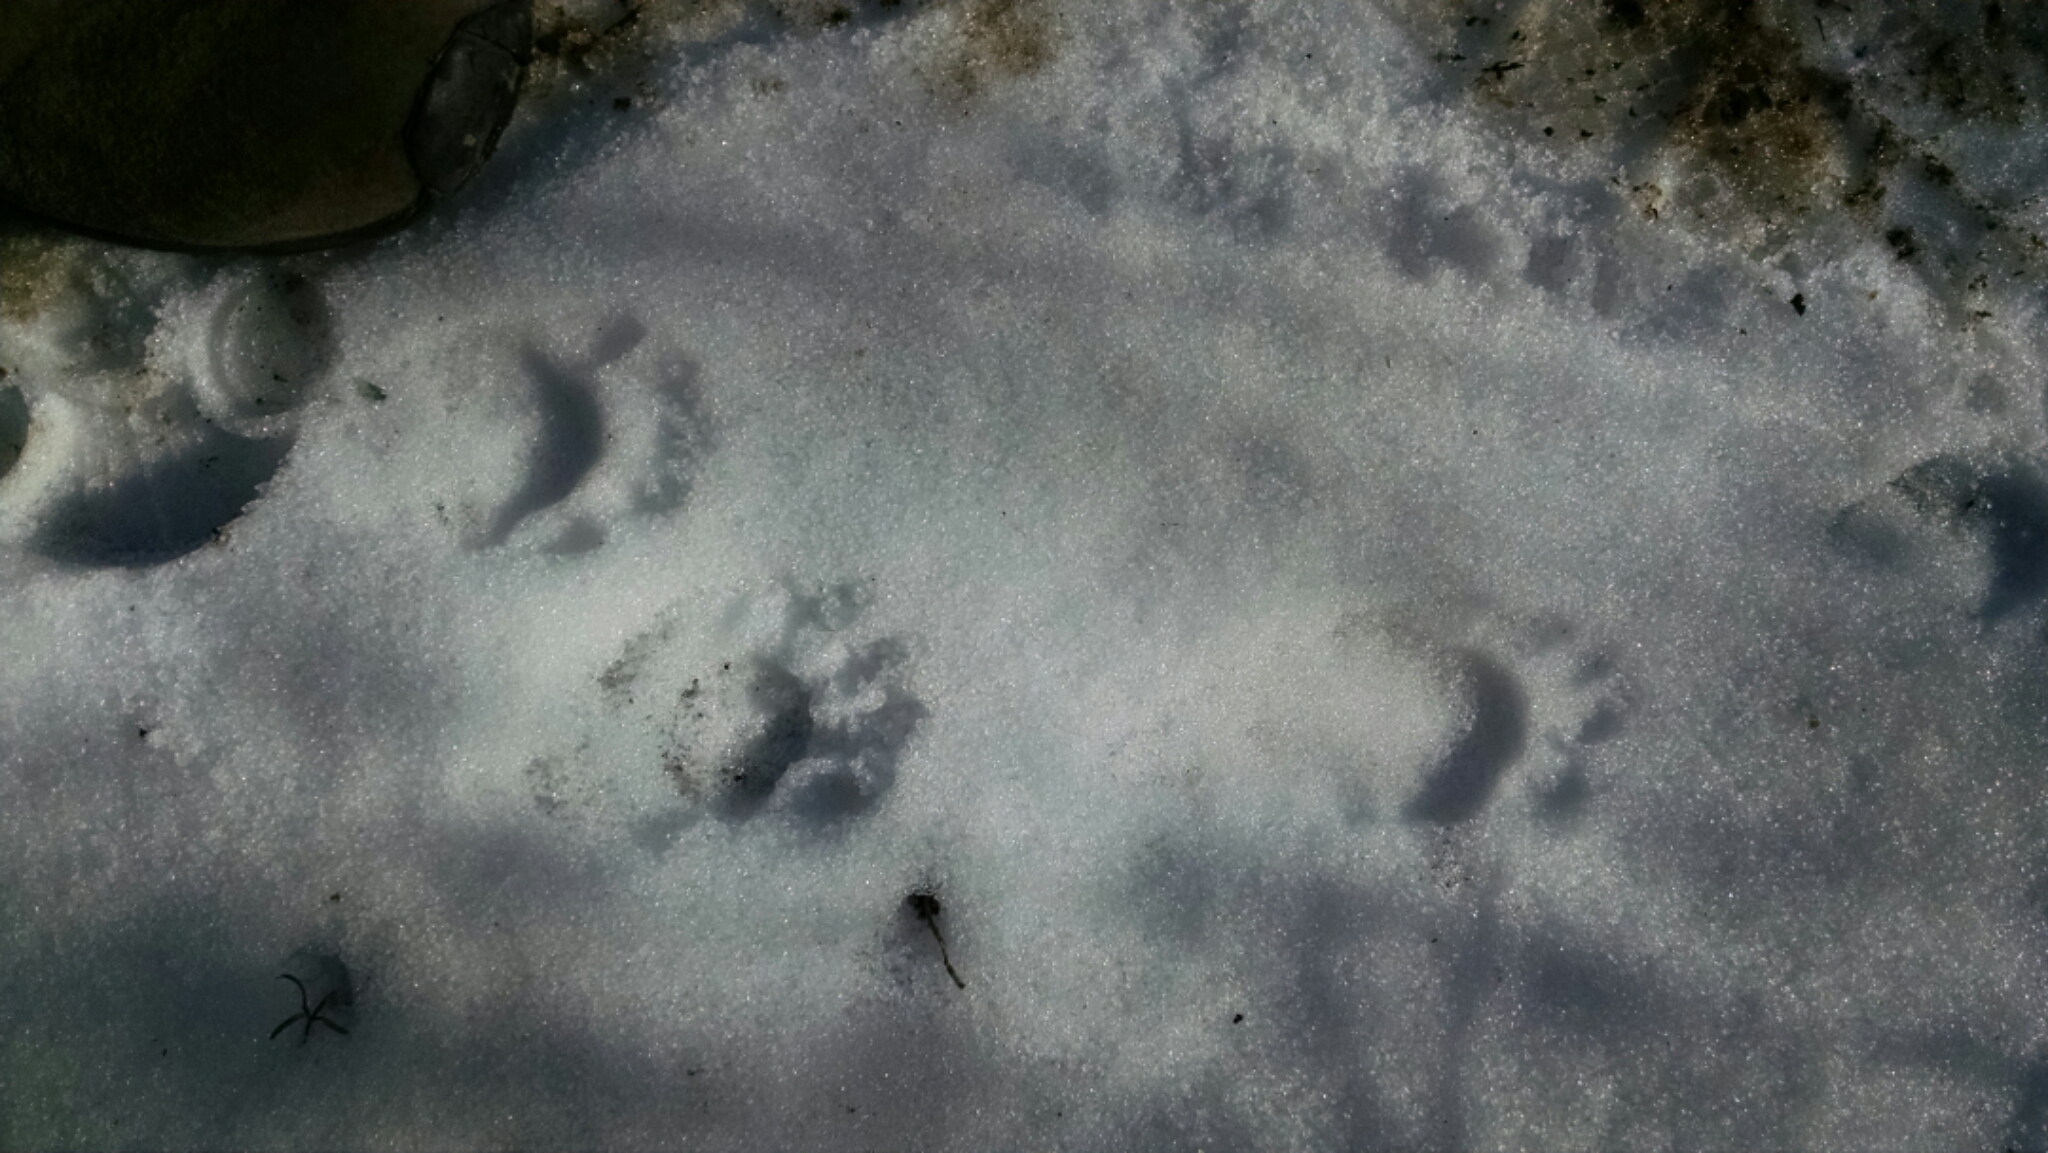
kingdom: Animalia
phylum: Chordata
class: Mammalia
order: Carnivora
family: Procyonidae
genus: Procyon
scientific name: Procyon lotor
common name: Raccoon
